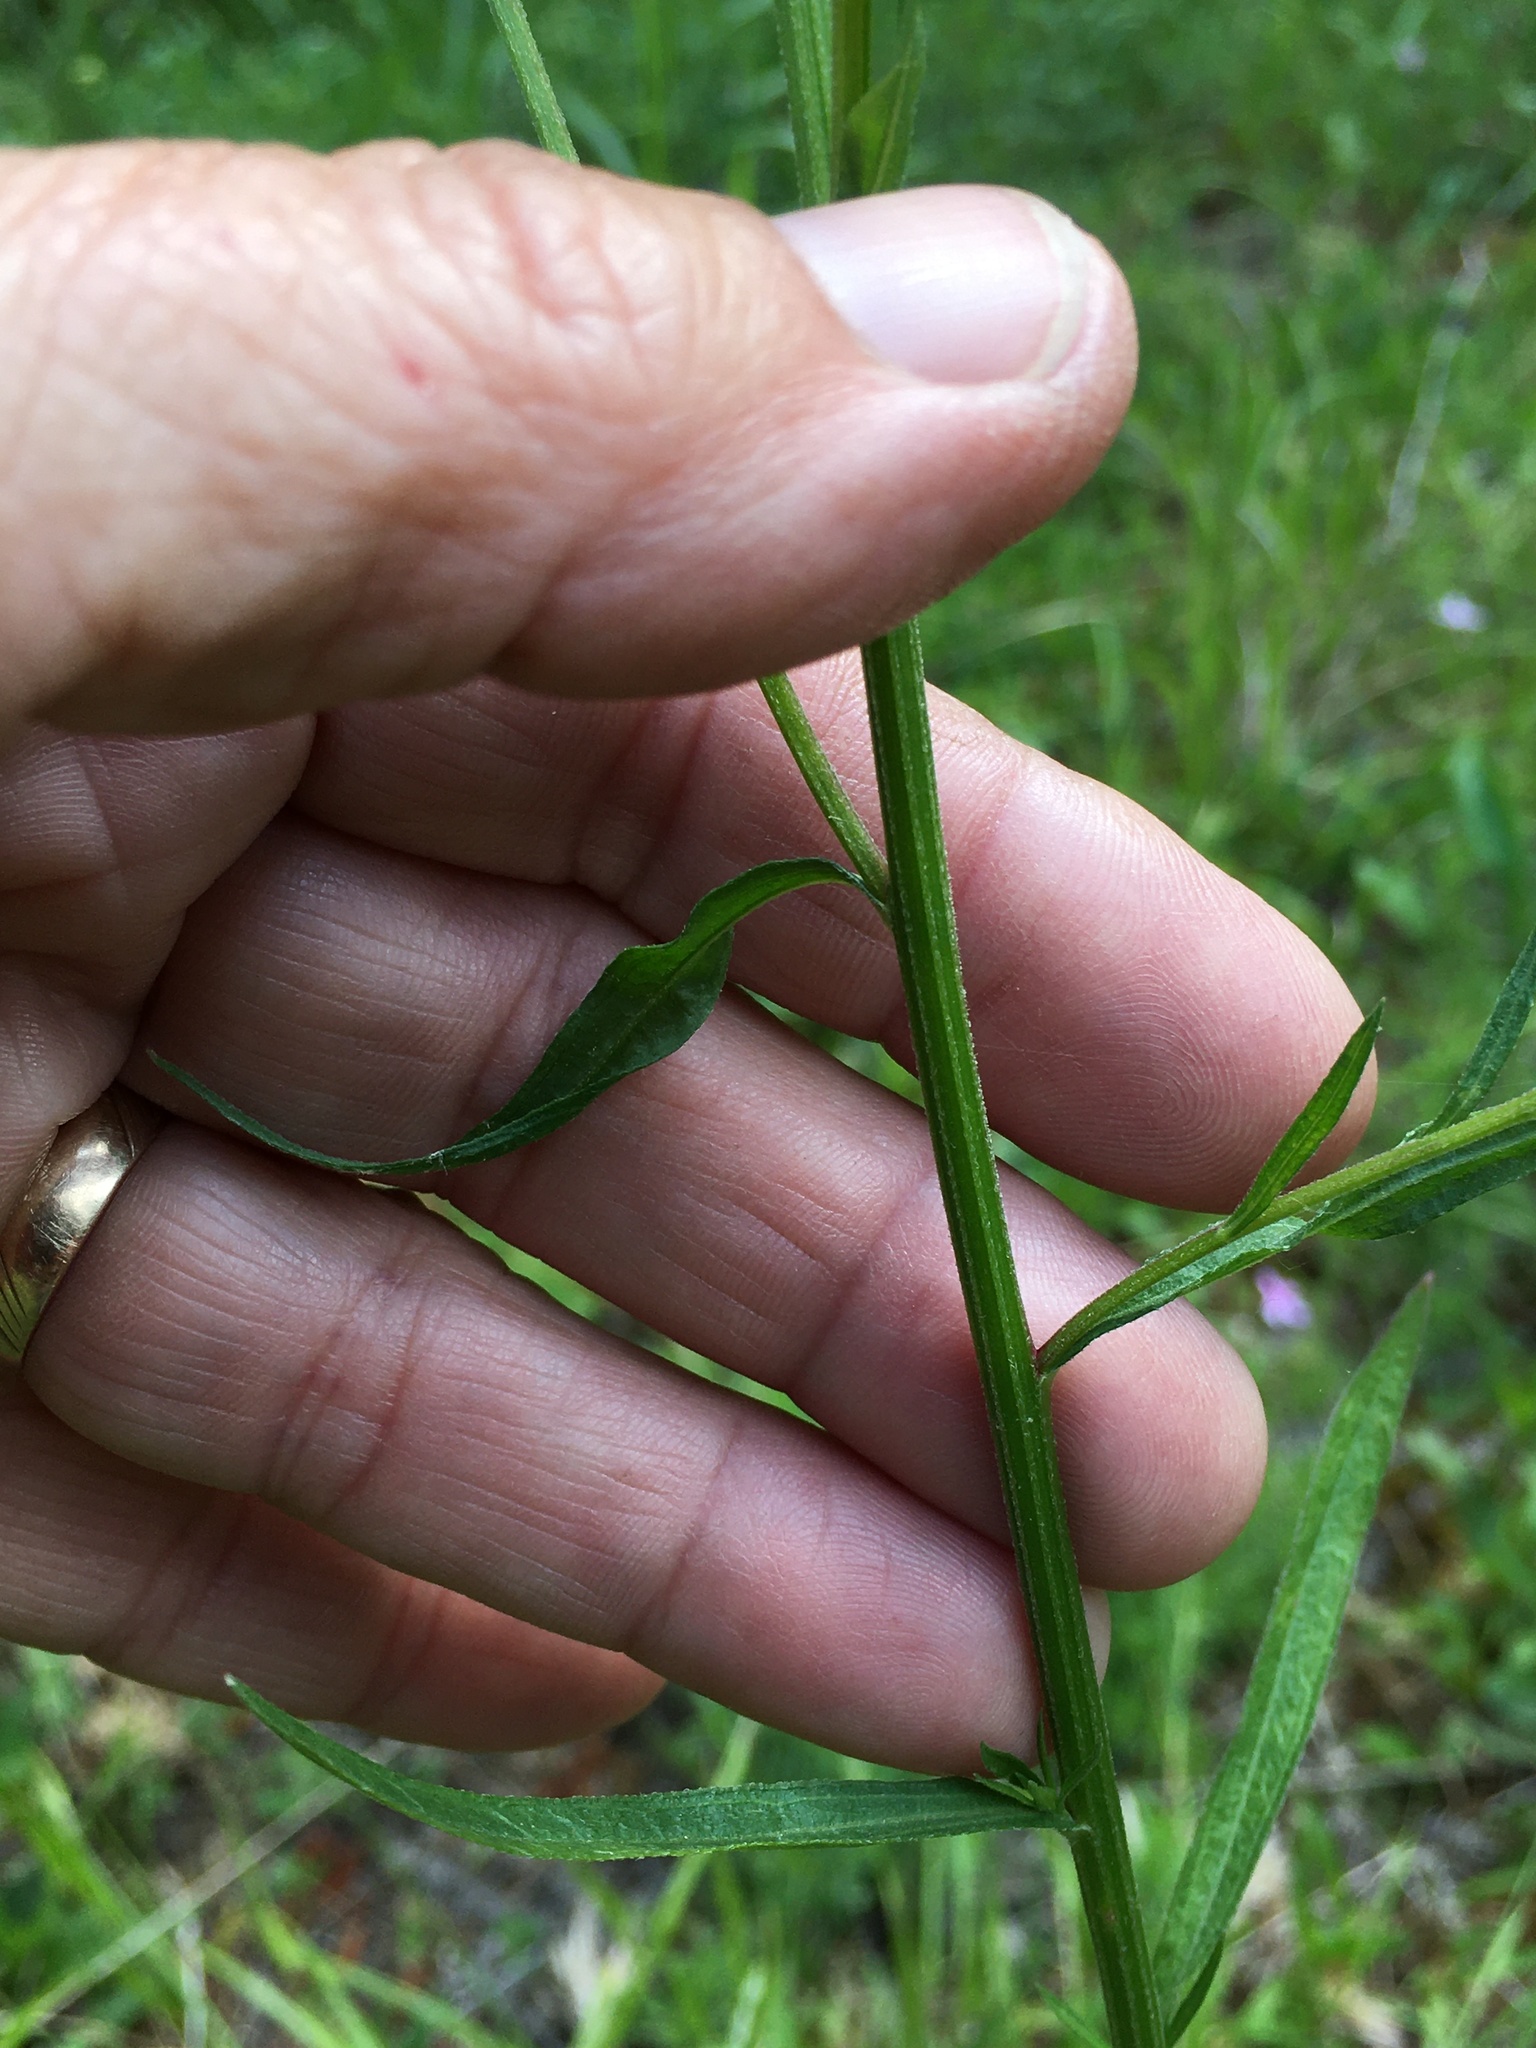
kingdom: Plantae
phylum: Tracheophyta
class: Magnoliopsida
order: Asterales
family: Asteraceae
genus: Erigeron
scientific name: Erigeron strigosus
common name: Common eastern fleabane
